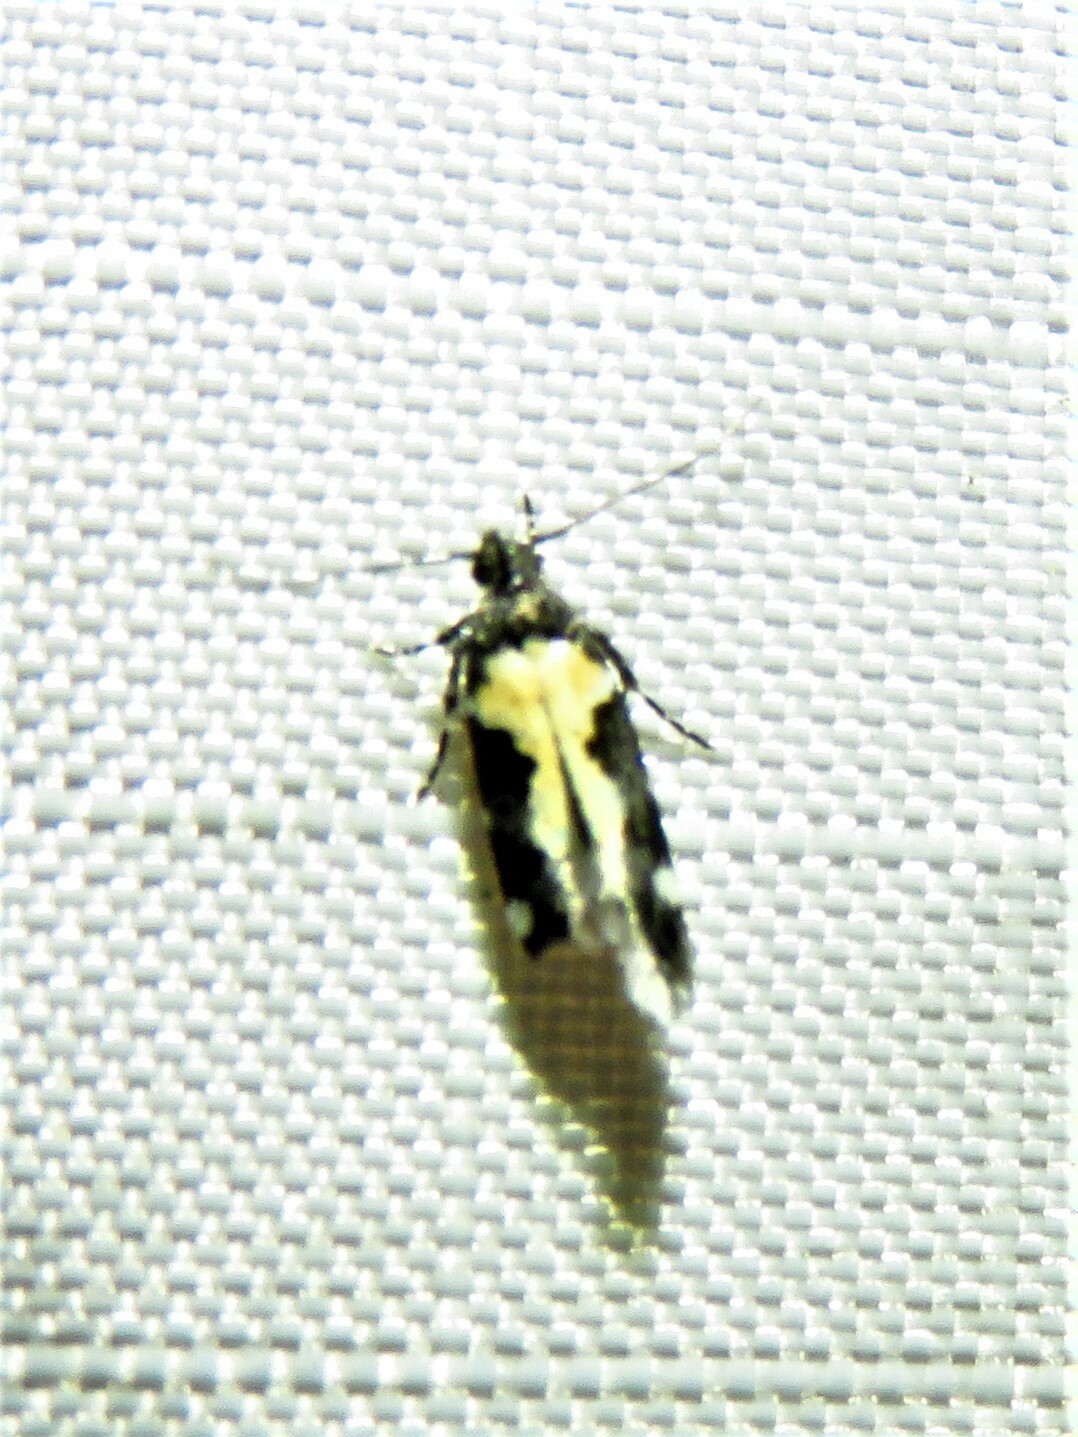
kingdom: Animalia
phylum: Arthropoda
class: Insecta
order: Lepidoptera
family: Gelechiidae
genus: Stegasta
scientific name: Stegasta bosqueella
